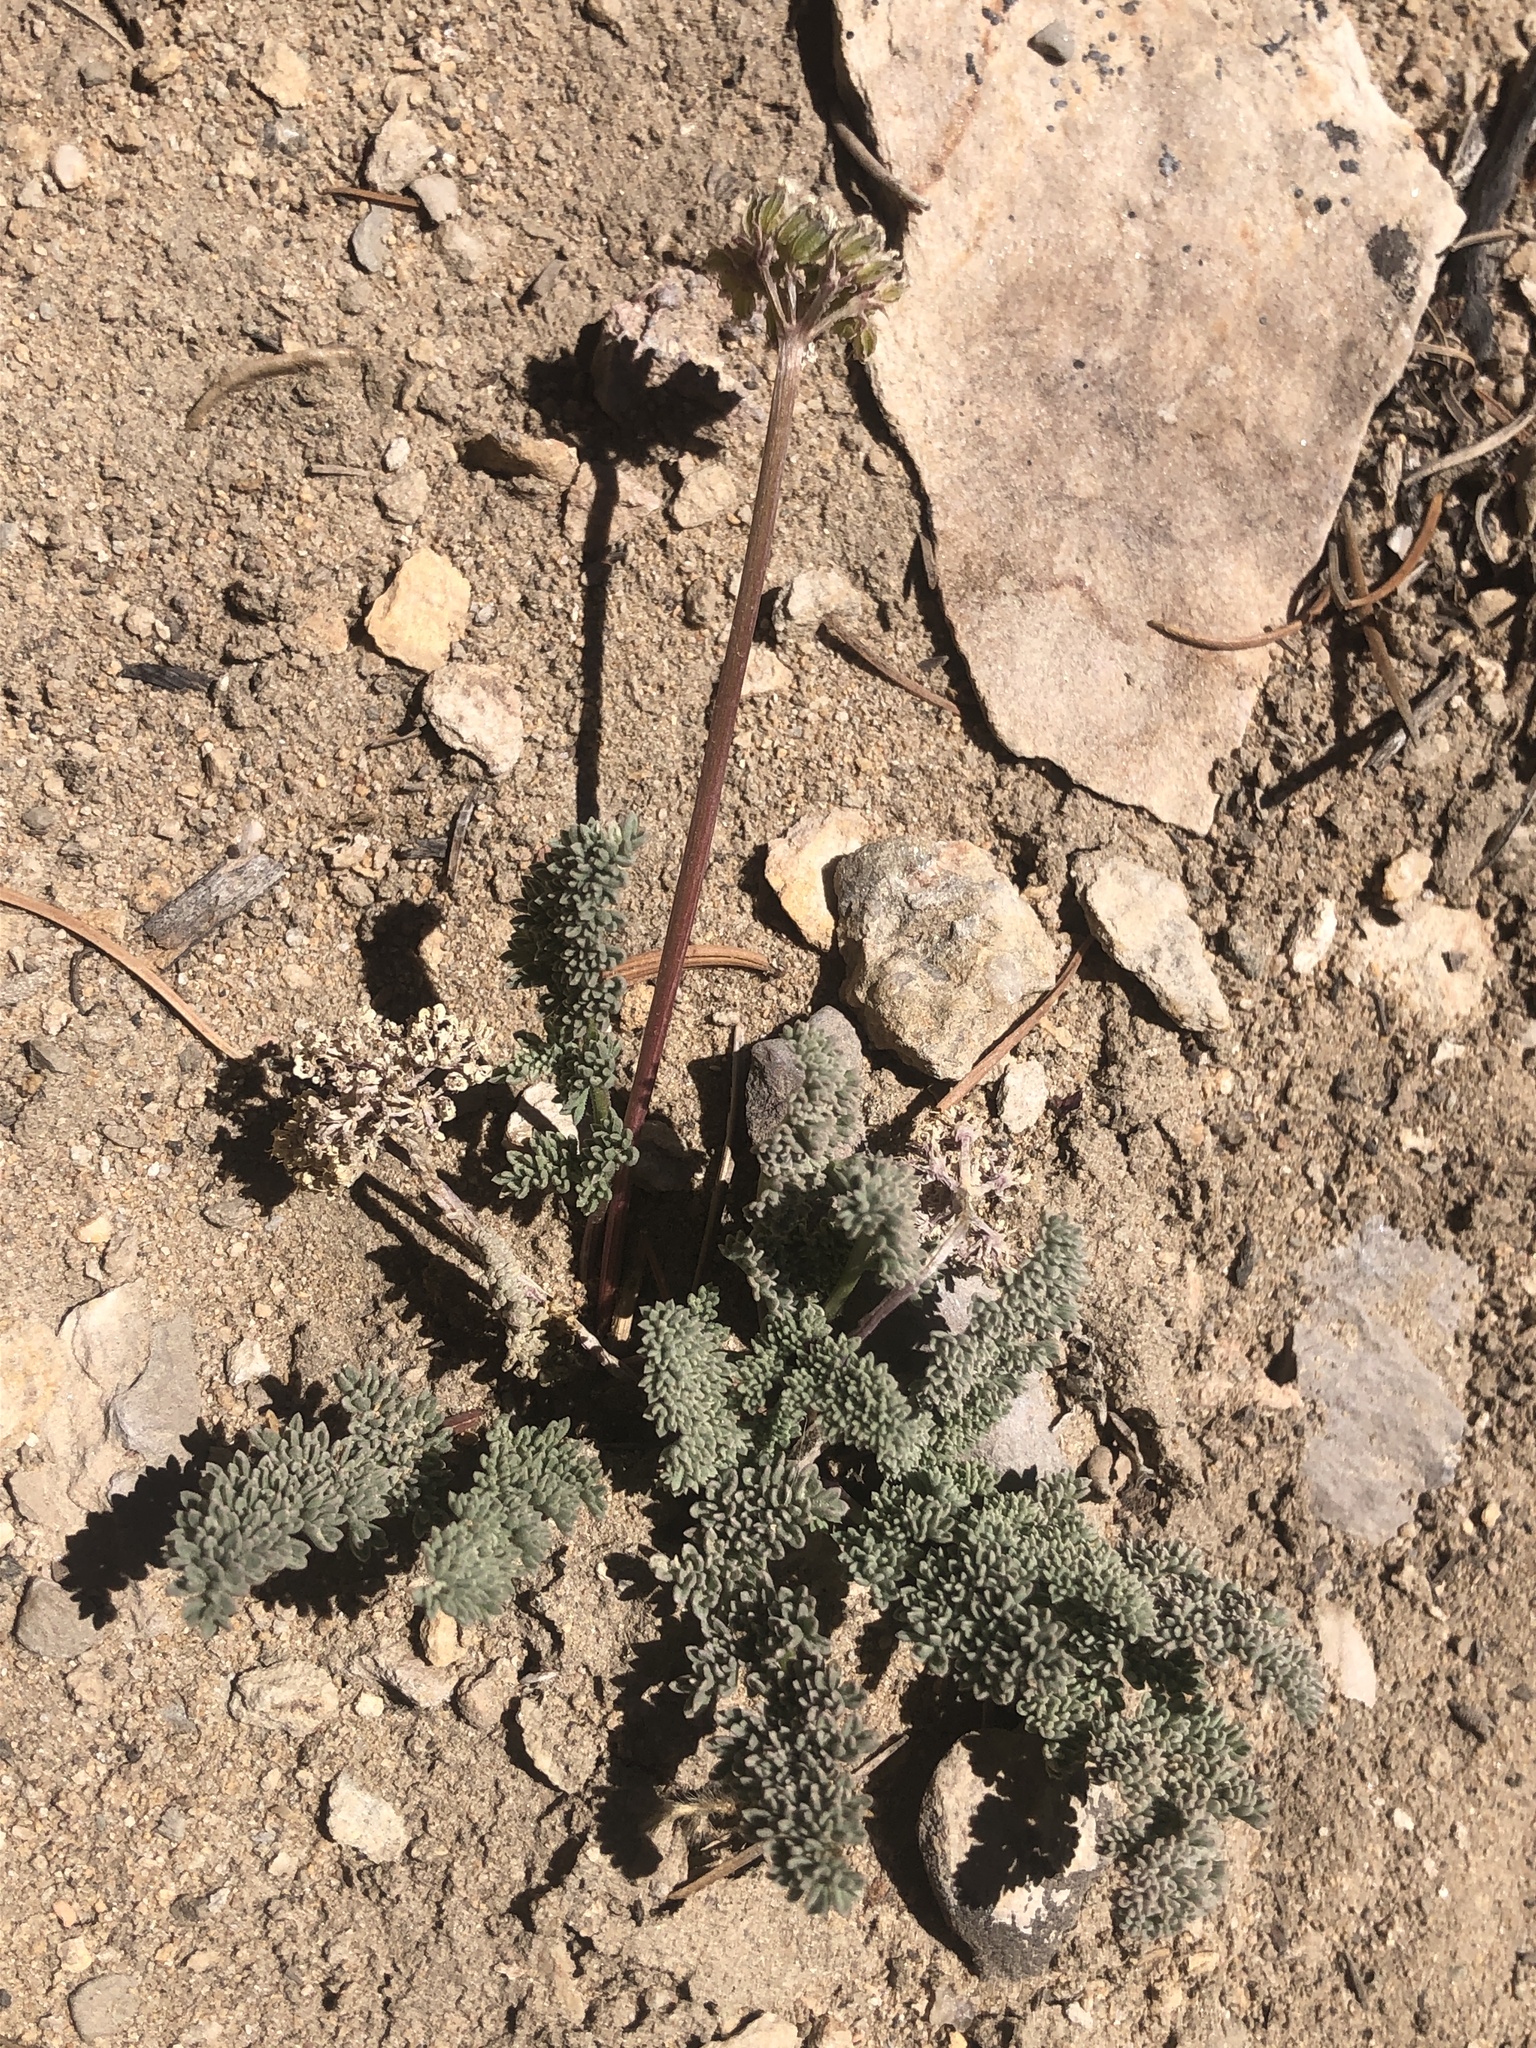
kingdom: Plantae
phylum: Tracheophyta
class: Magnoliopsida
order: Apiales
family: Apiaceae
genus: Aulospermum
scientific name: Aulospermum aboriginum
